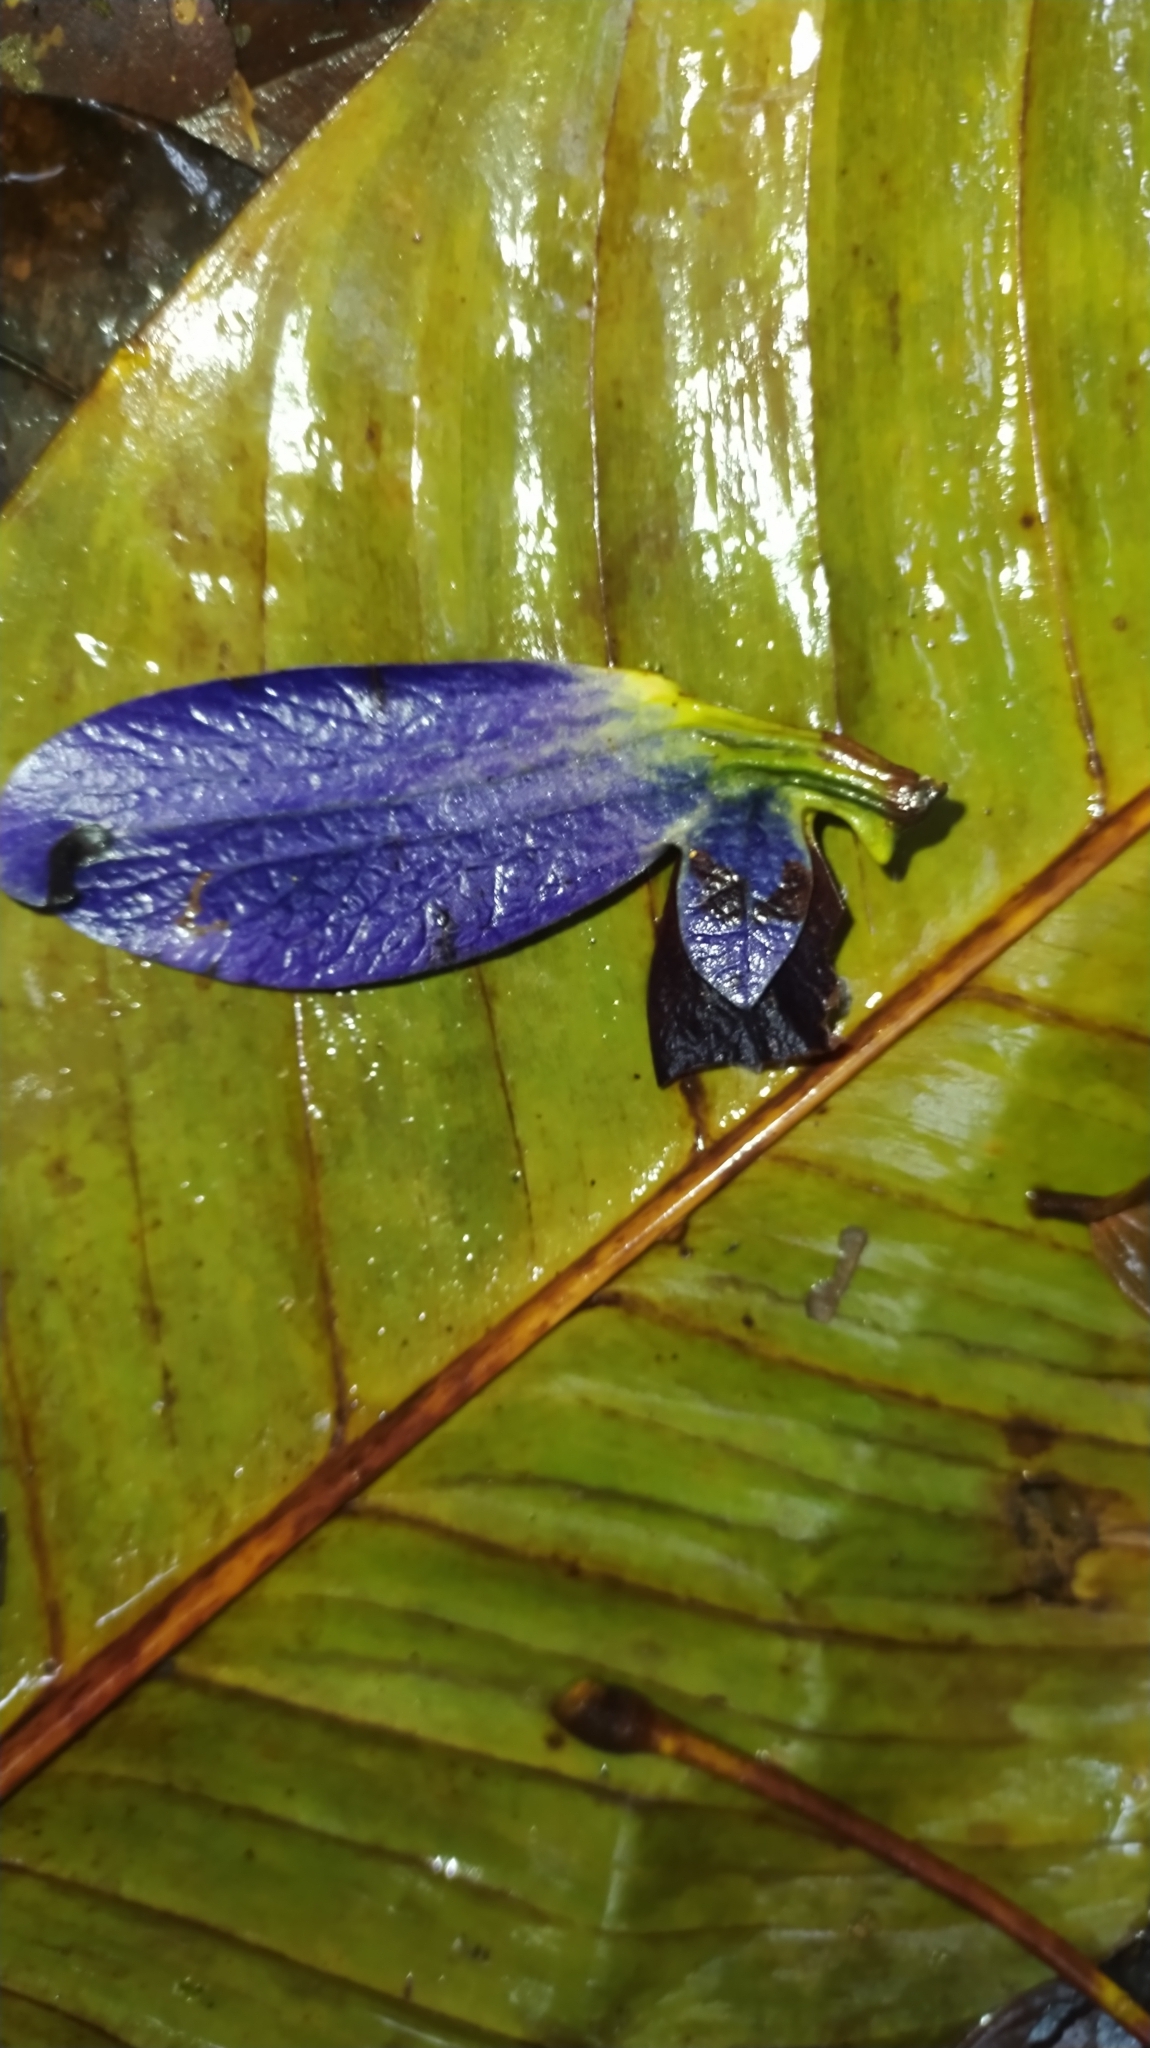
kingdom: Plantae
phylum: Tracheophyta
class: Magnoliopsida
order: Myrtales
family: Vochysiaceae
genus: Erisma
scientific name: Erisma uncinatum
